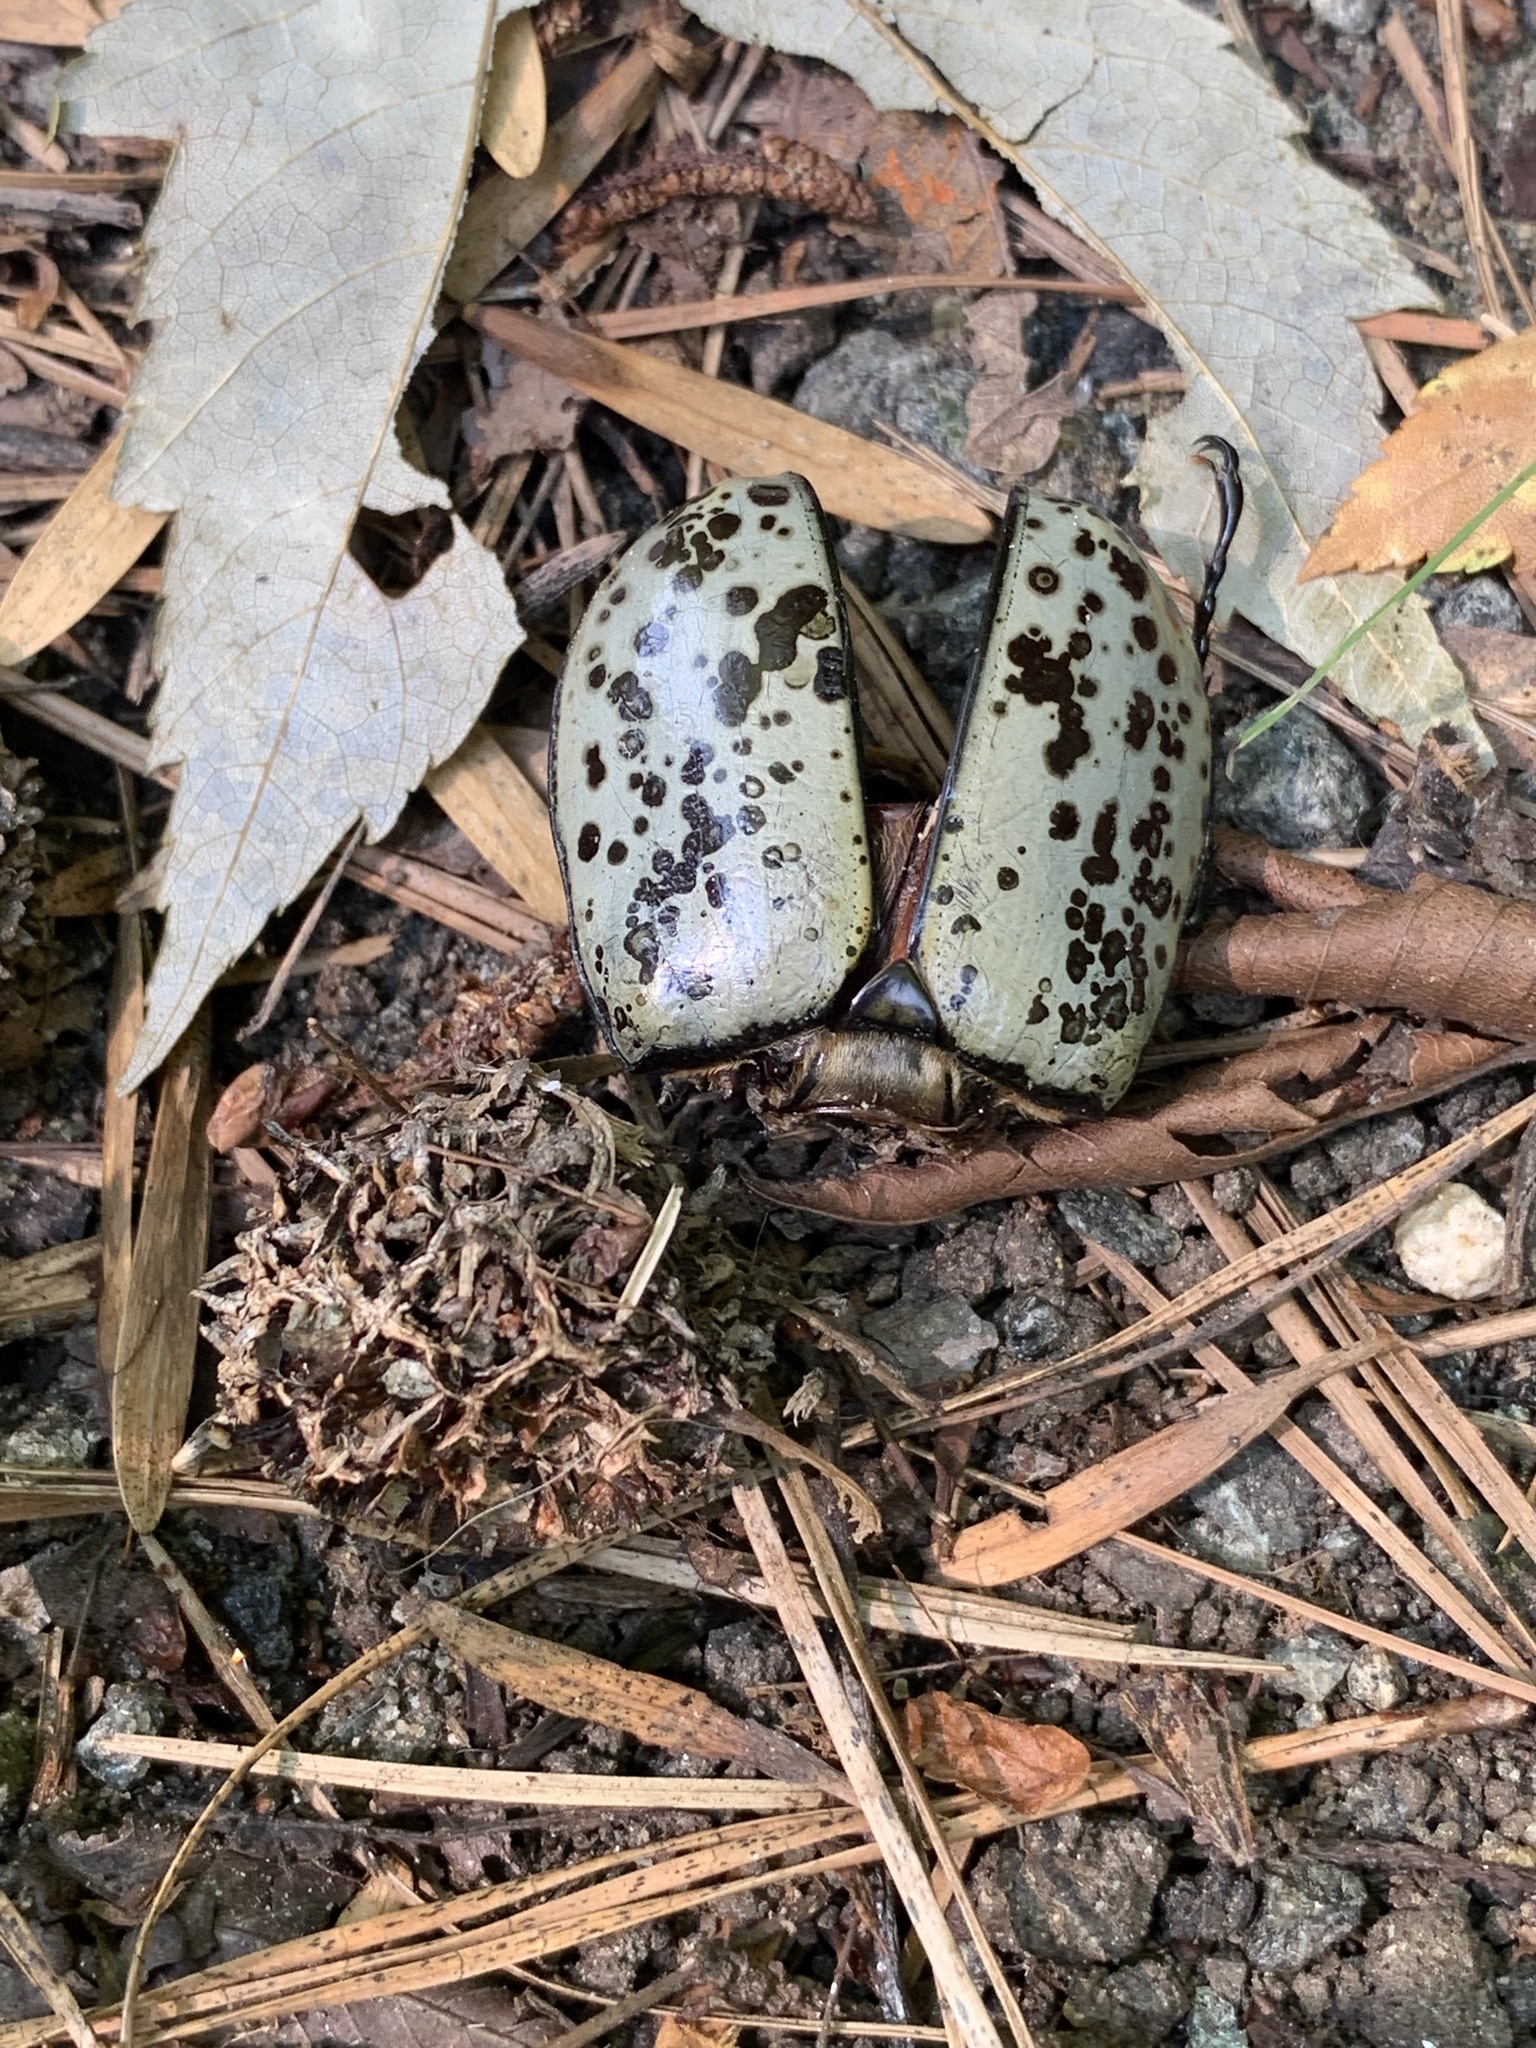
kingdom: Animalia
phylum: Arthropoda
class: Insecta
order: Coleoptera
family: Scarabaeidae
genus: Dynastes
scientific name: Dynastes tityus
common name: Eastern hercules beetle
